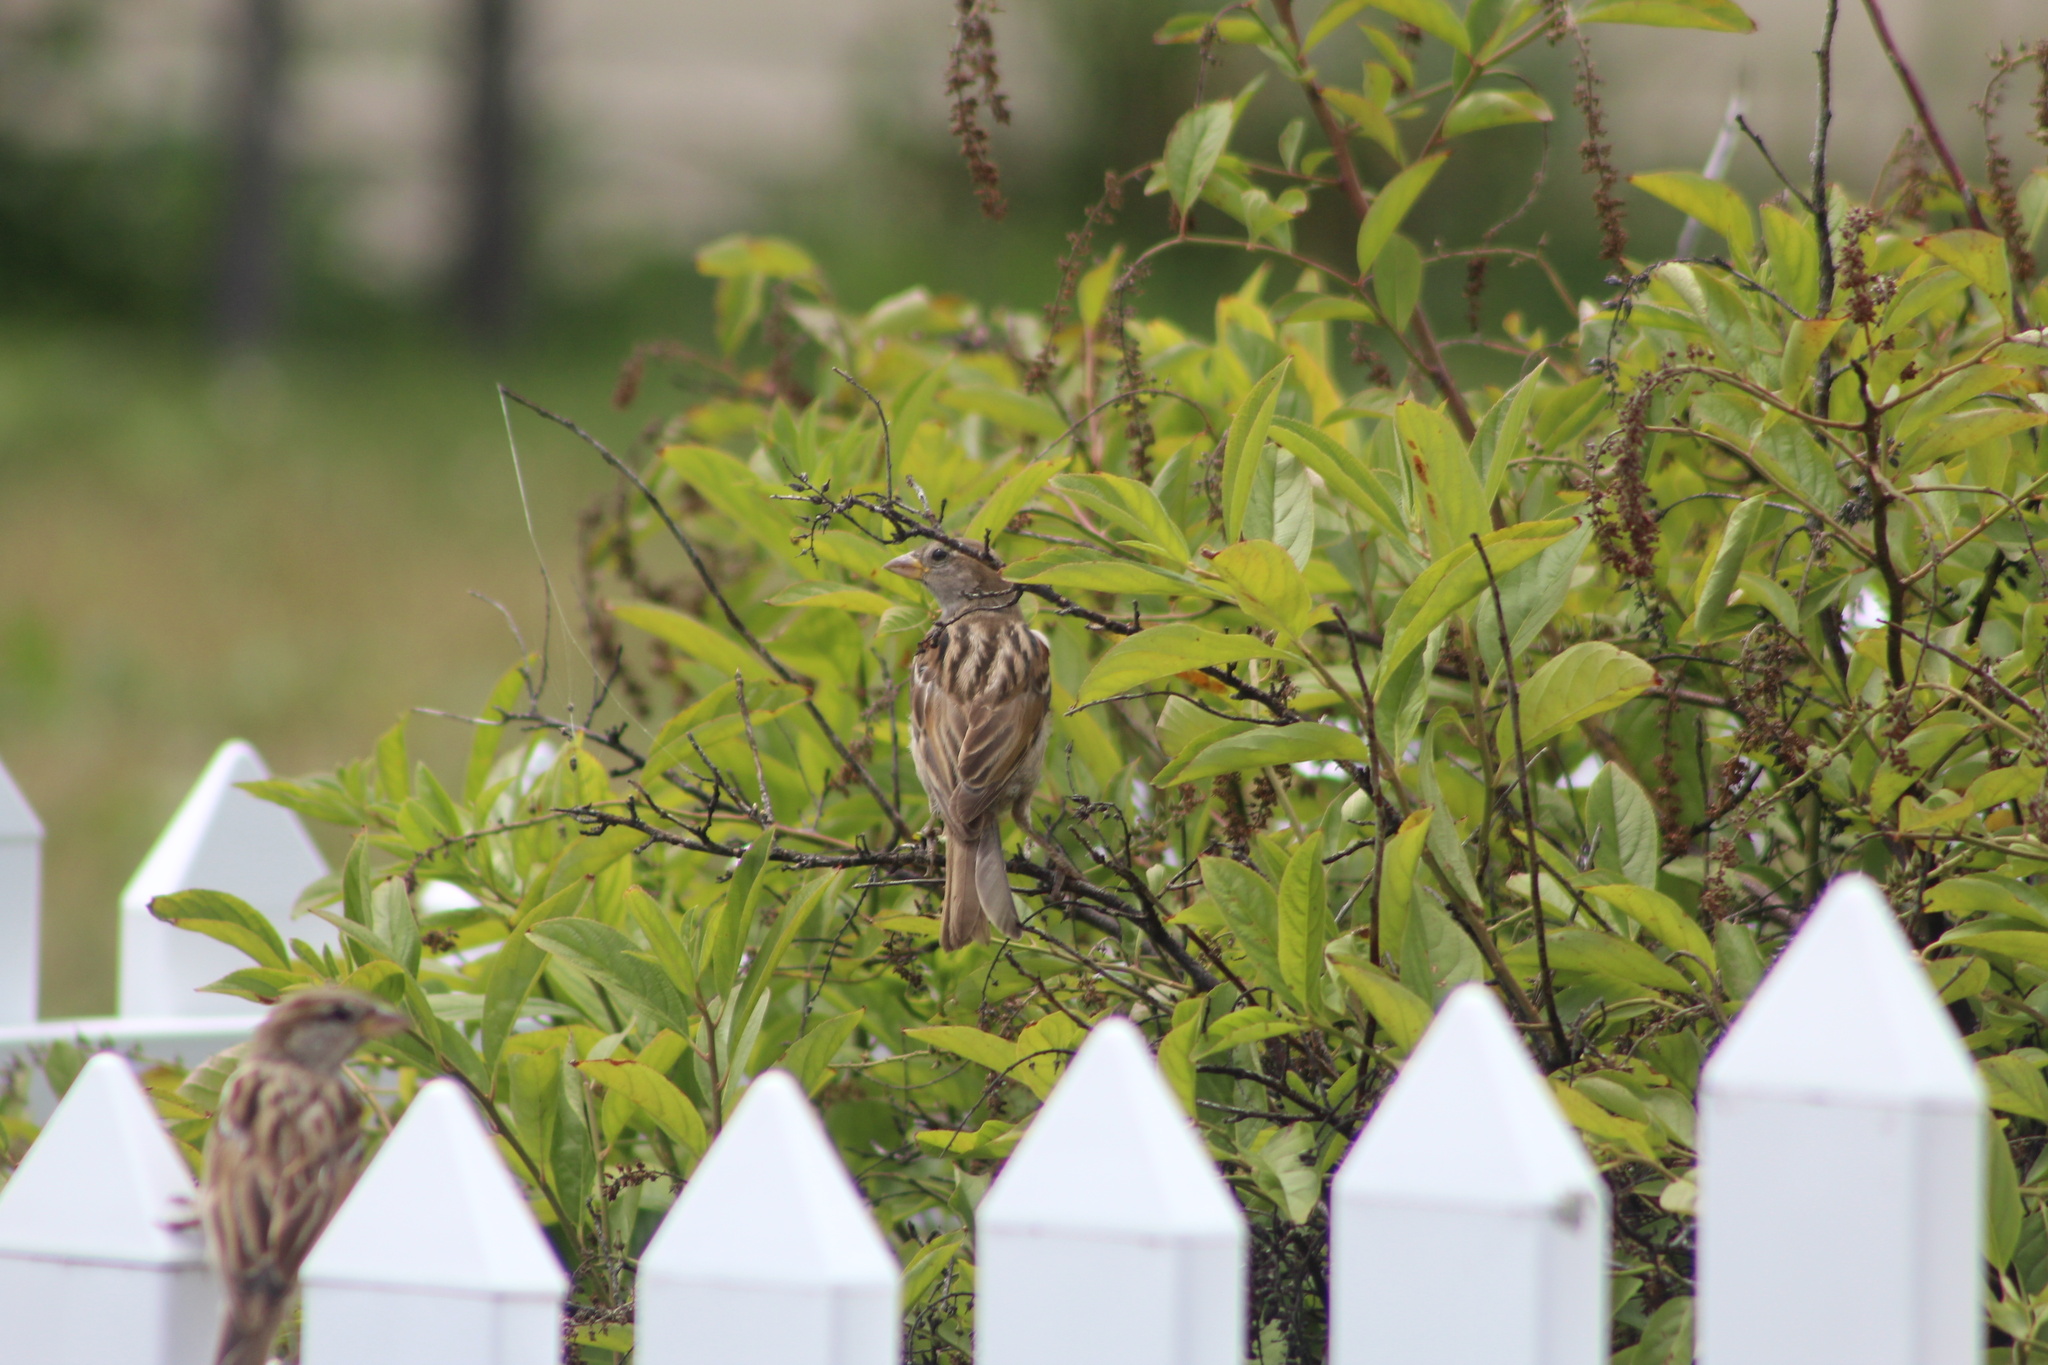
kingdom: Animalia
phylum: Chordata
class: Aves
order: Passeriformes
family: Passeridae
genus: Passer
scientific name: Passer domesticus
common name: House sparrow
